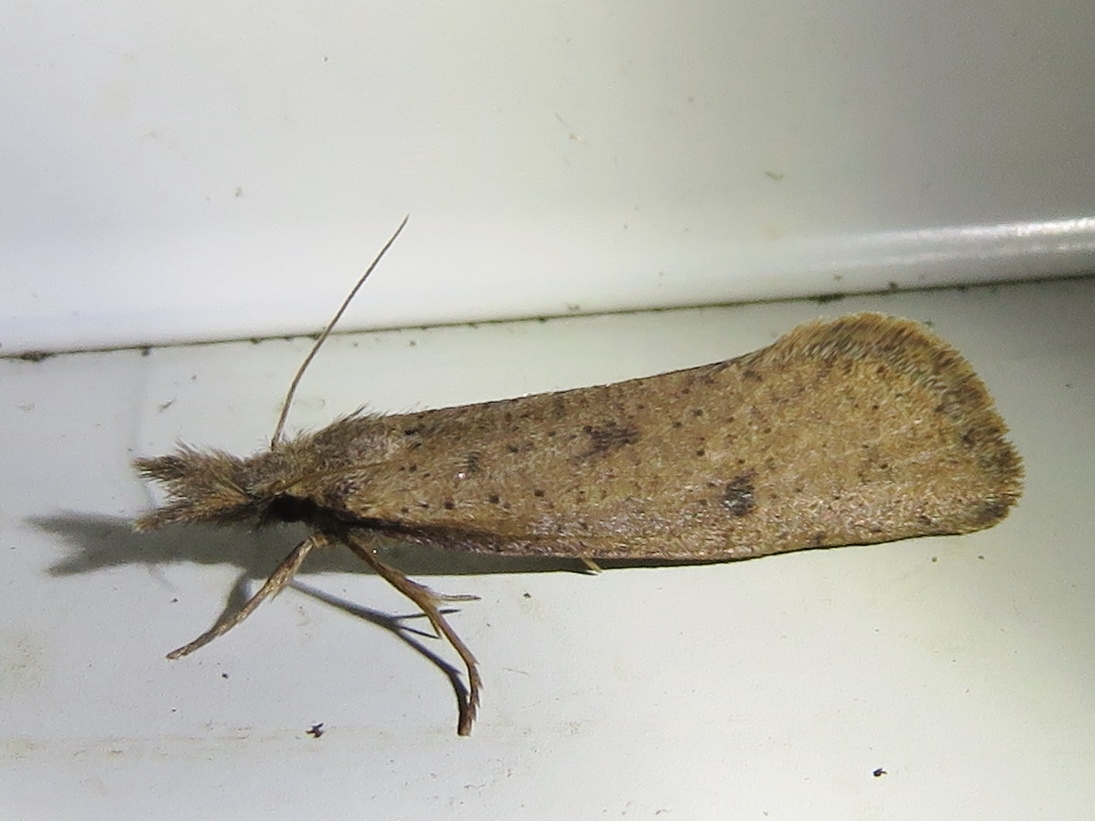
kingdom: Animalia
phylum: Arthropoda
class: Insecta
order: Lepidoptera
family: Tineidae
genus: Acrolophus
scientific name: Acrolophus mortipennella
